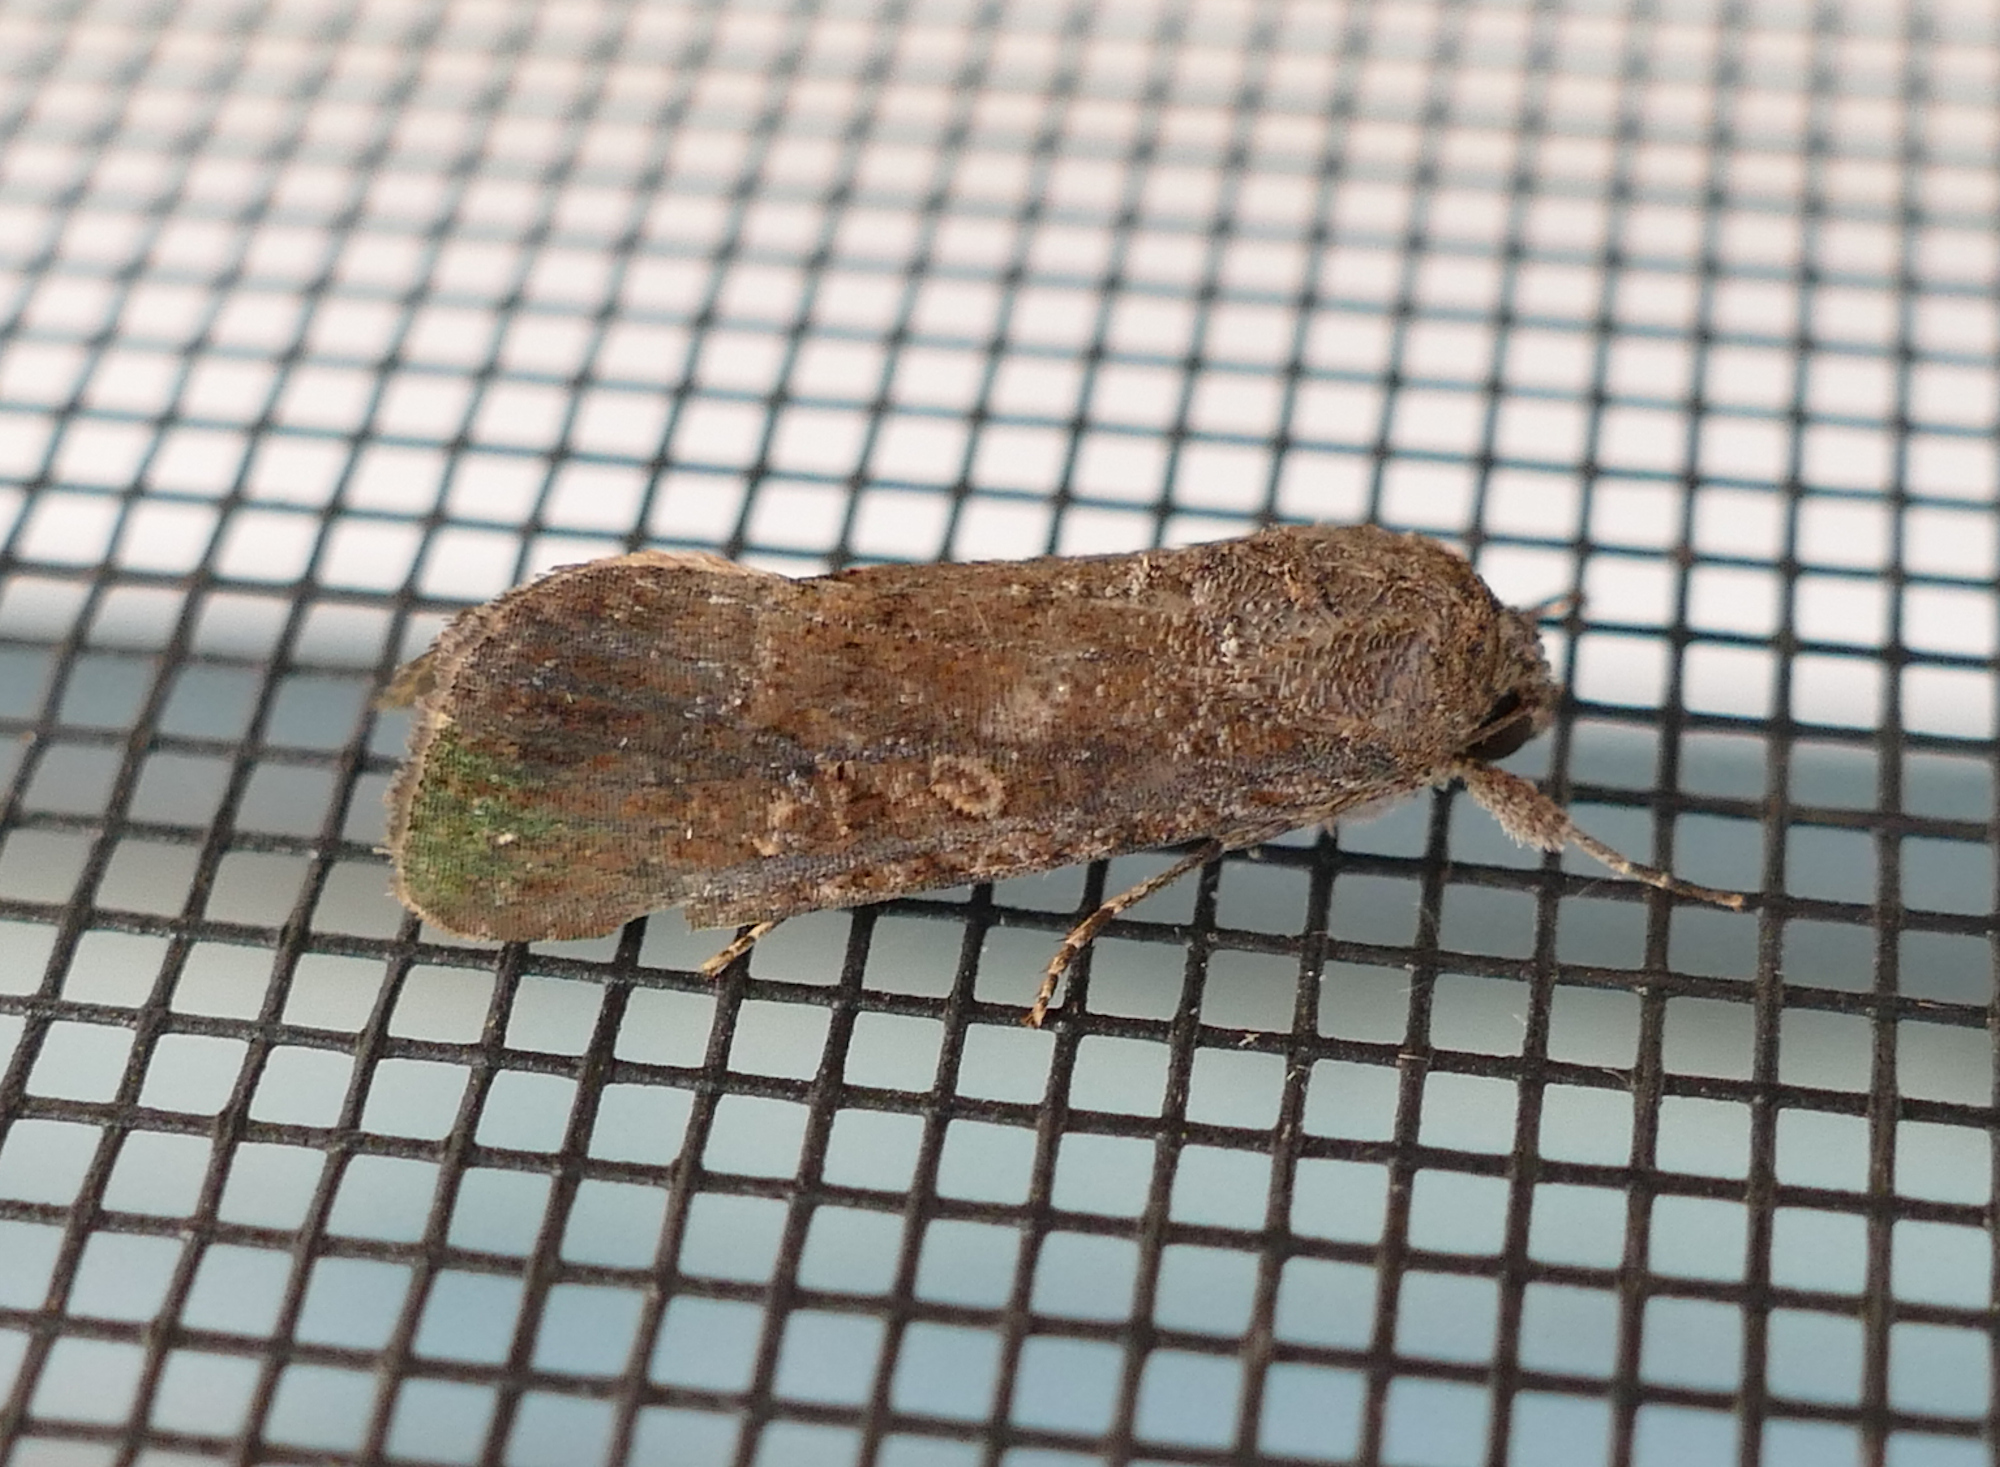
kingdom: Animalia
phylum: Arthropoda
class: Insecta
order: Lepidoptera
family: Noctuidae
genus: Spodoptera
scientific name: Spodoptera frugiperda
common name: Fall armyworm
